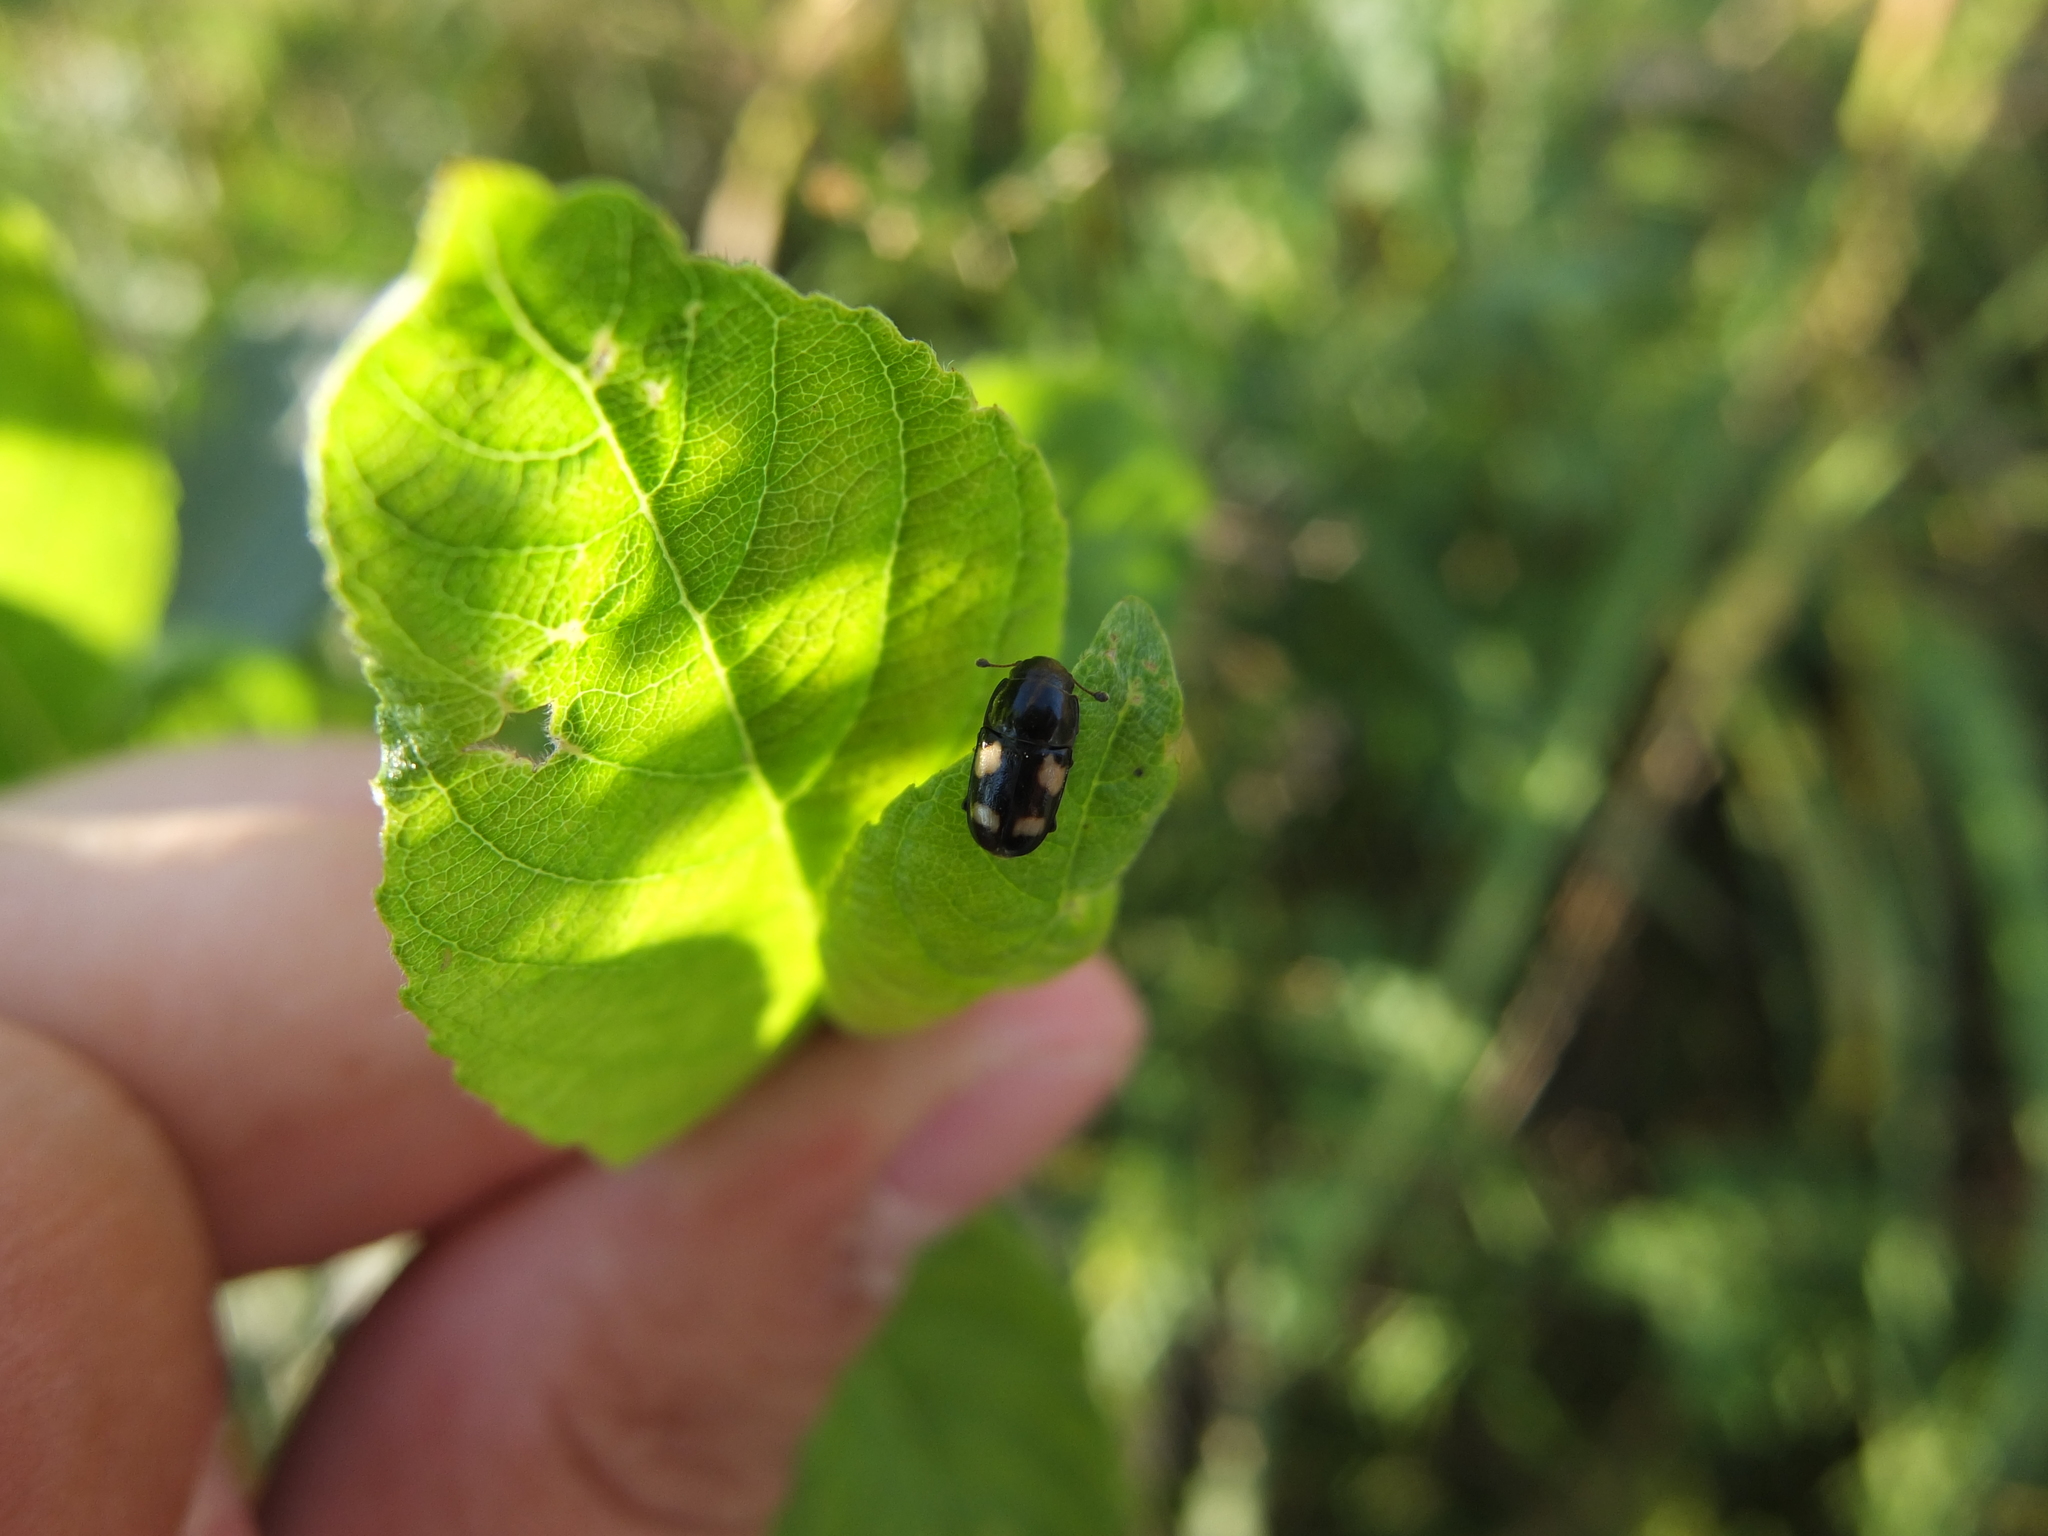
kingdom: Animalia
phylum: Arthropoda
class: Insecta
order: Coleoptera
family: Nitidulidae
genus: Glischrochilus
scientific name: Glischrochilus quadrisignatus
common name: Picnic beetle
